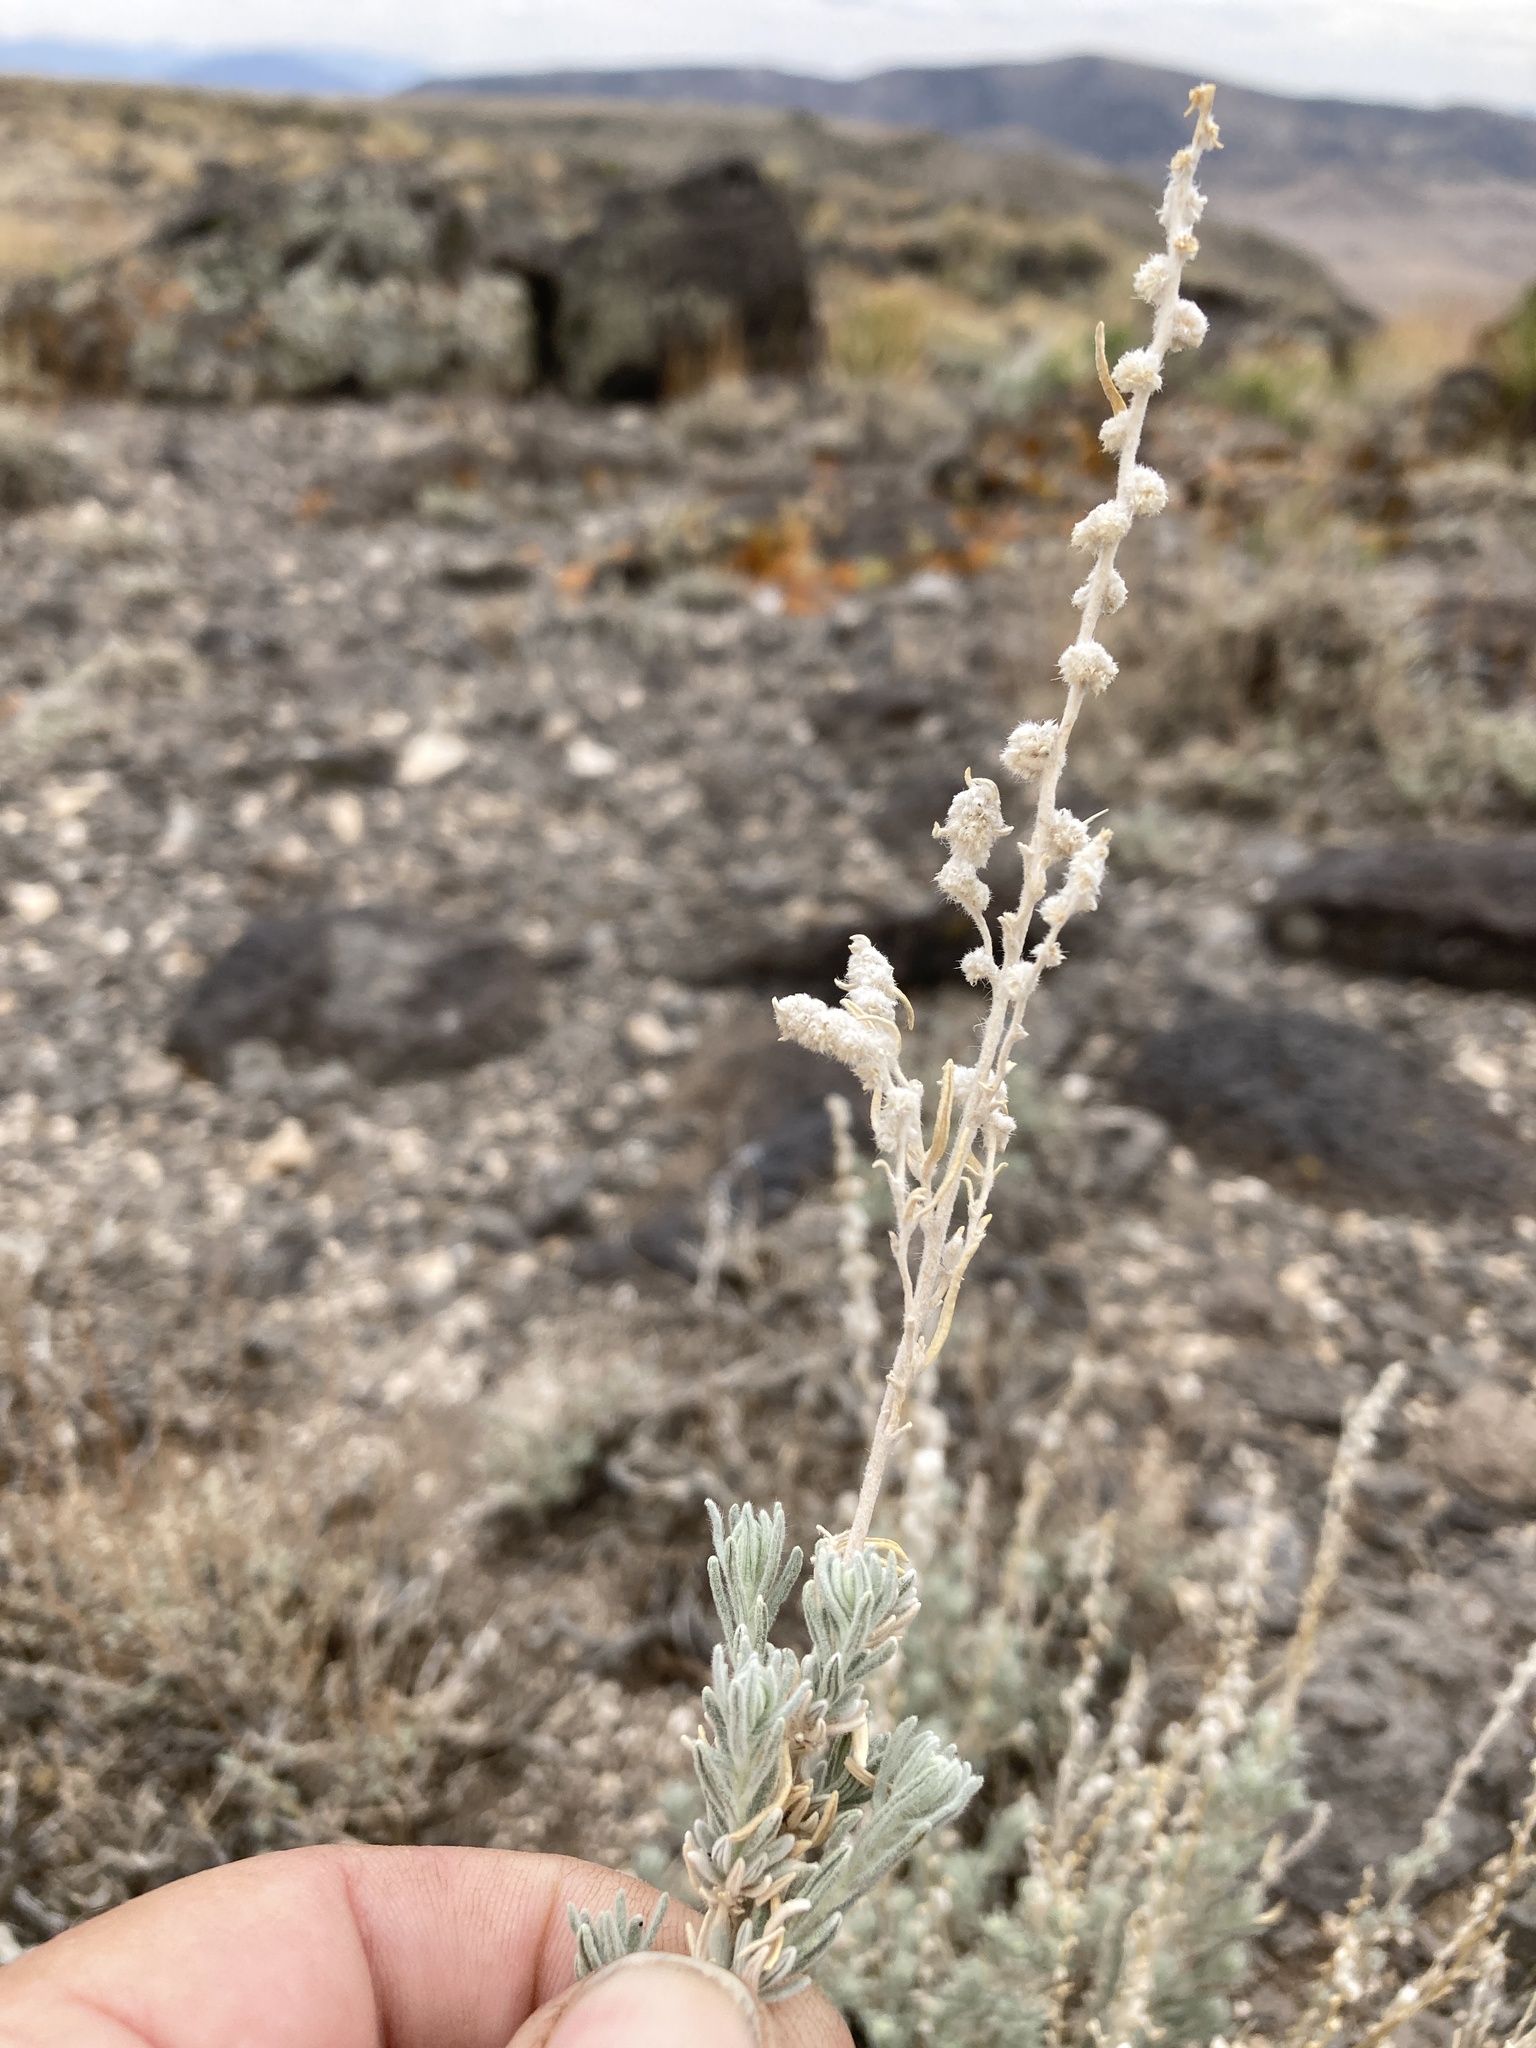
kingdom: Plantae
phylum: Tracheophyta
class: Magnoliopsida
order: Caryophyllales
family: Amaranthaceae
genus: Krascheninnikovia
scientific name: Krascheninnikovia lanata
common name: Winterfat
